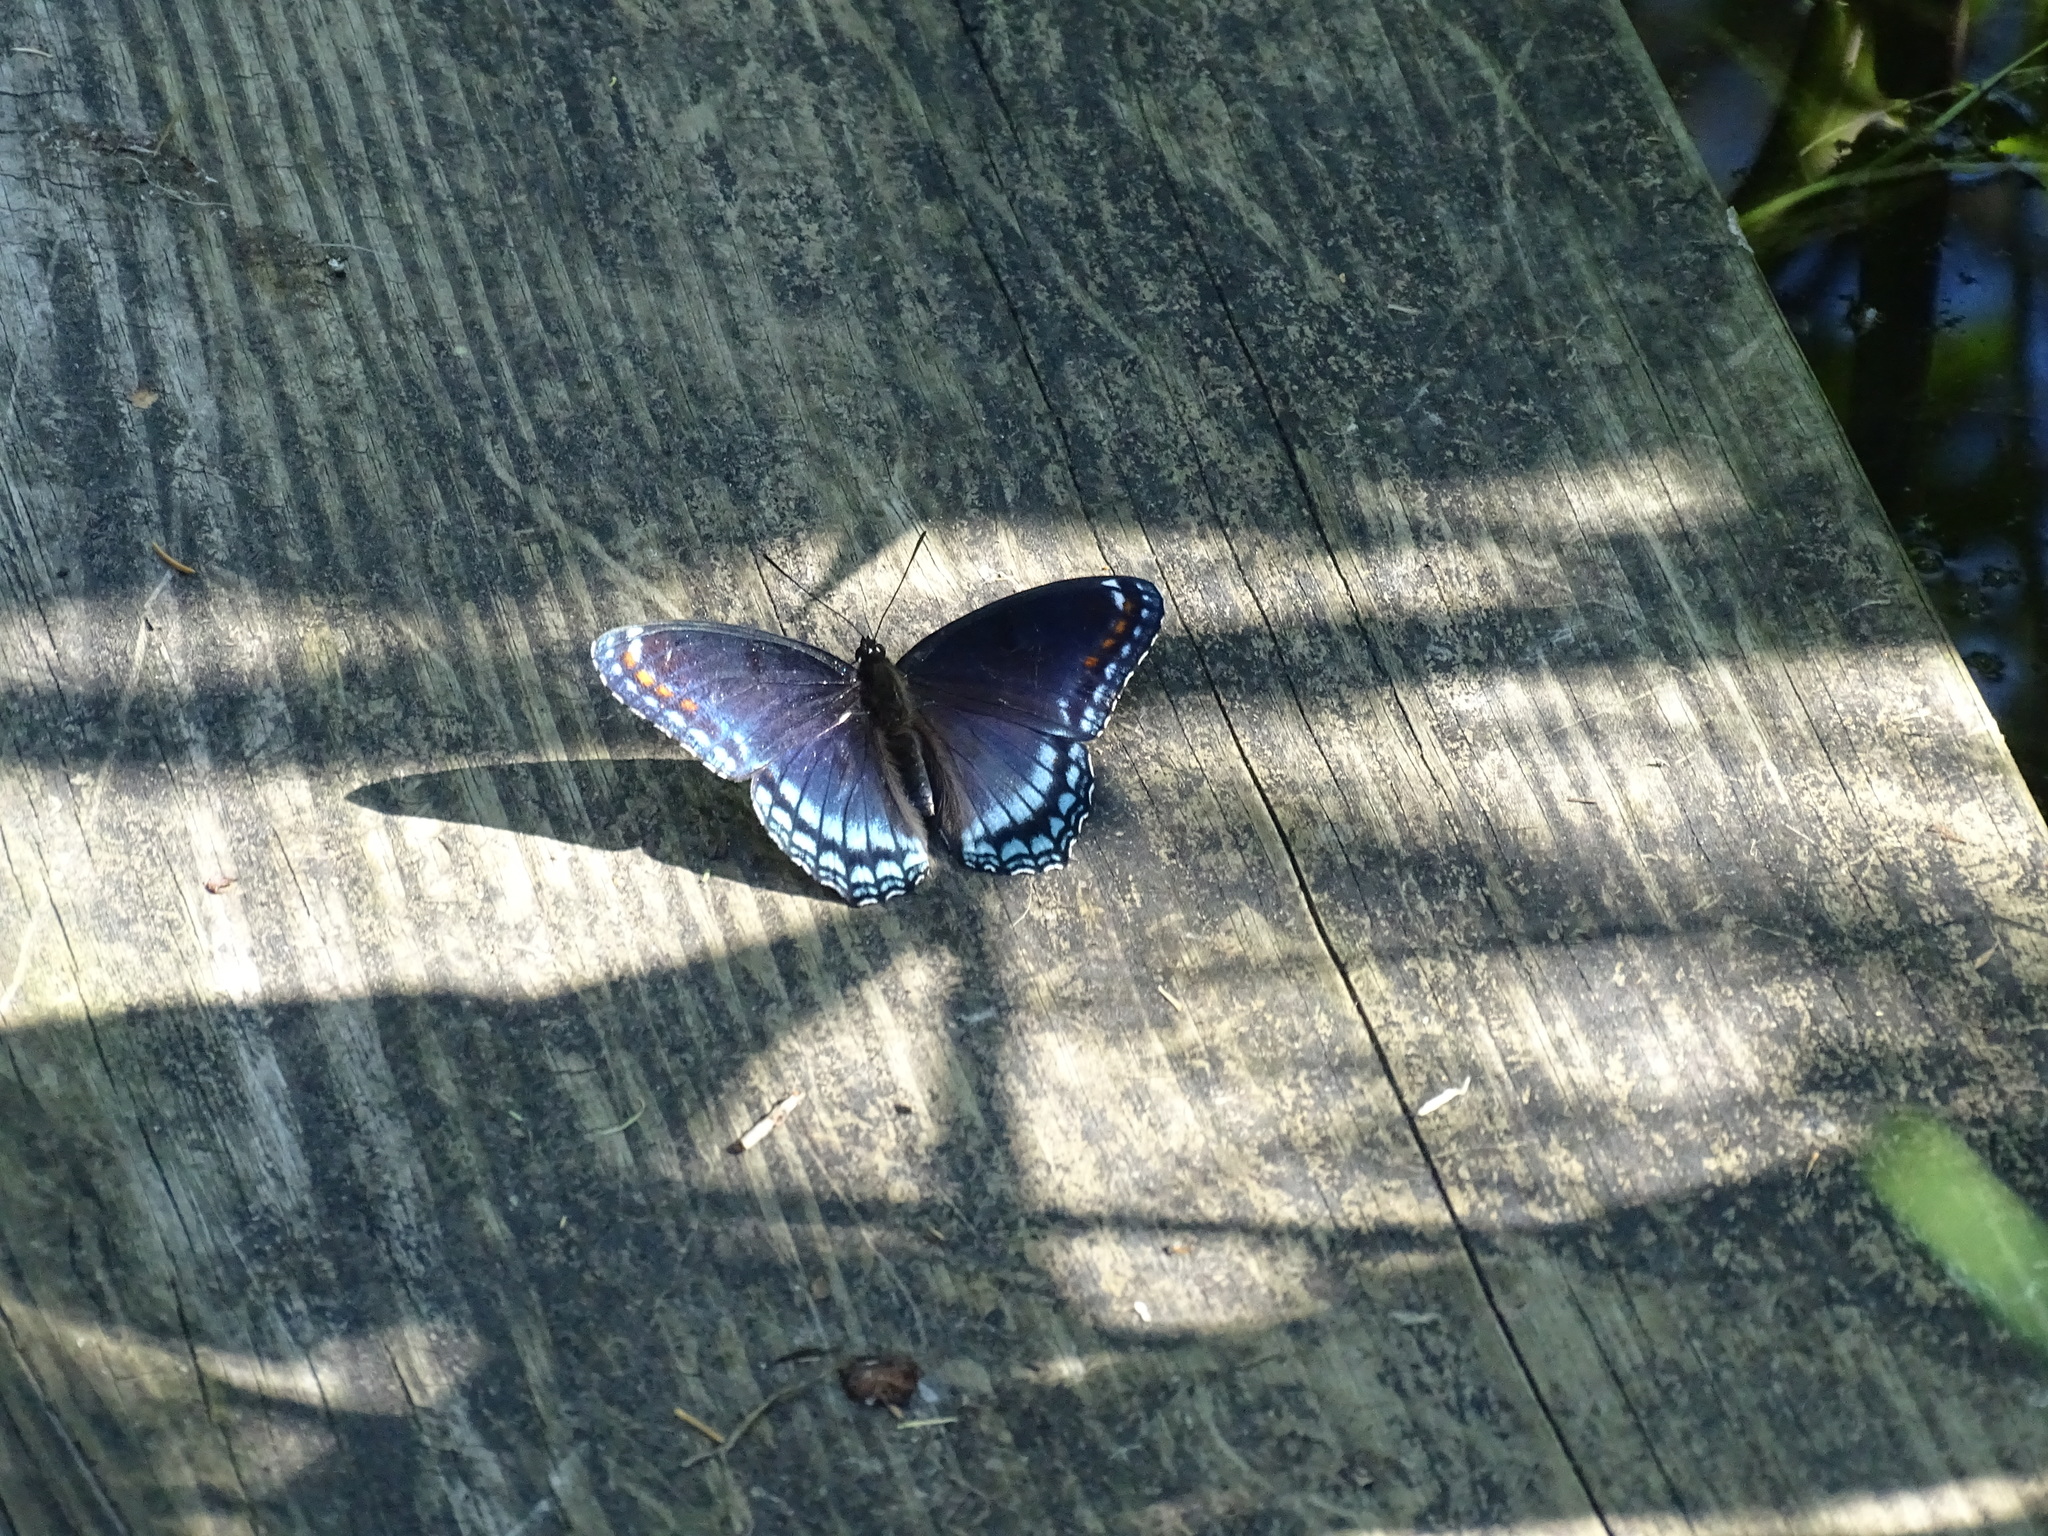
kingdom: Animalia
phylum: Arthropoda
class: Insecta
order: Lepidoptera
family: Nymphalidae
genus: Limenitis
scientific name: Limenitis astyanax
